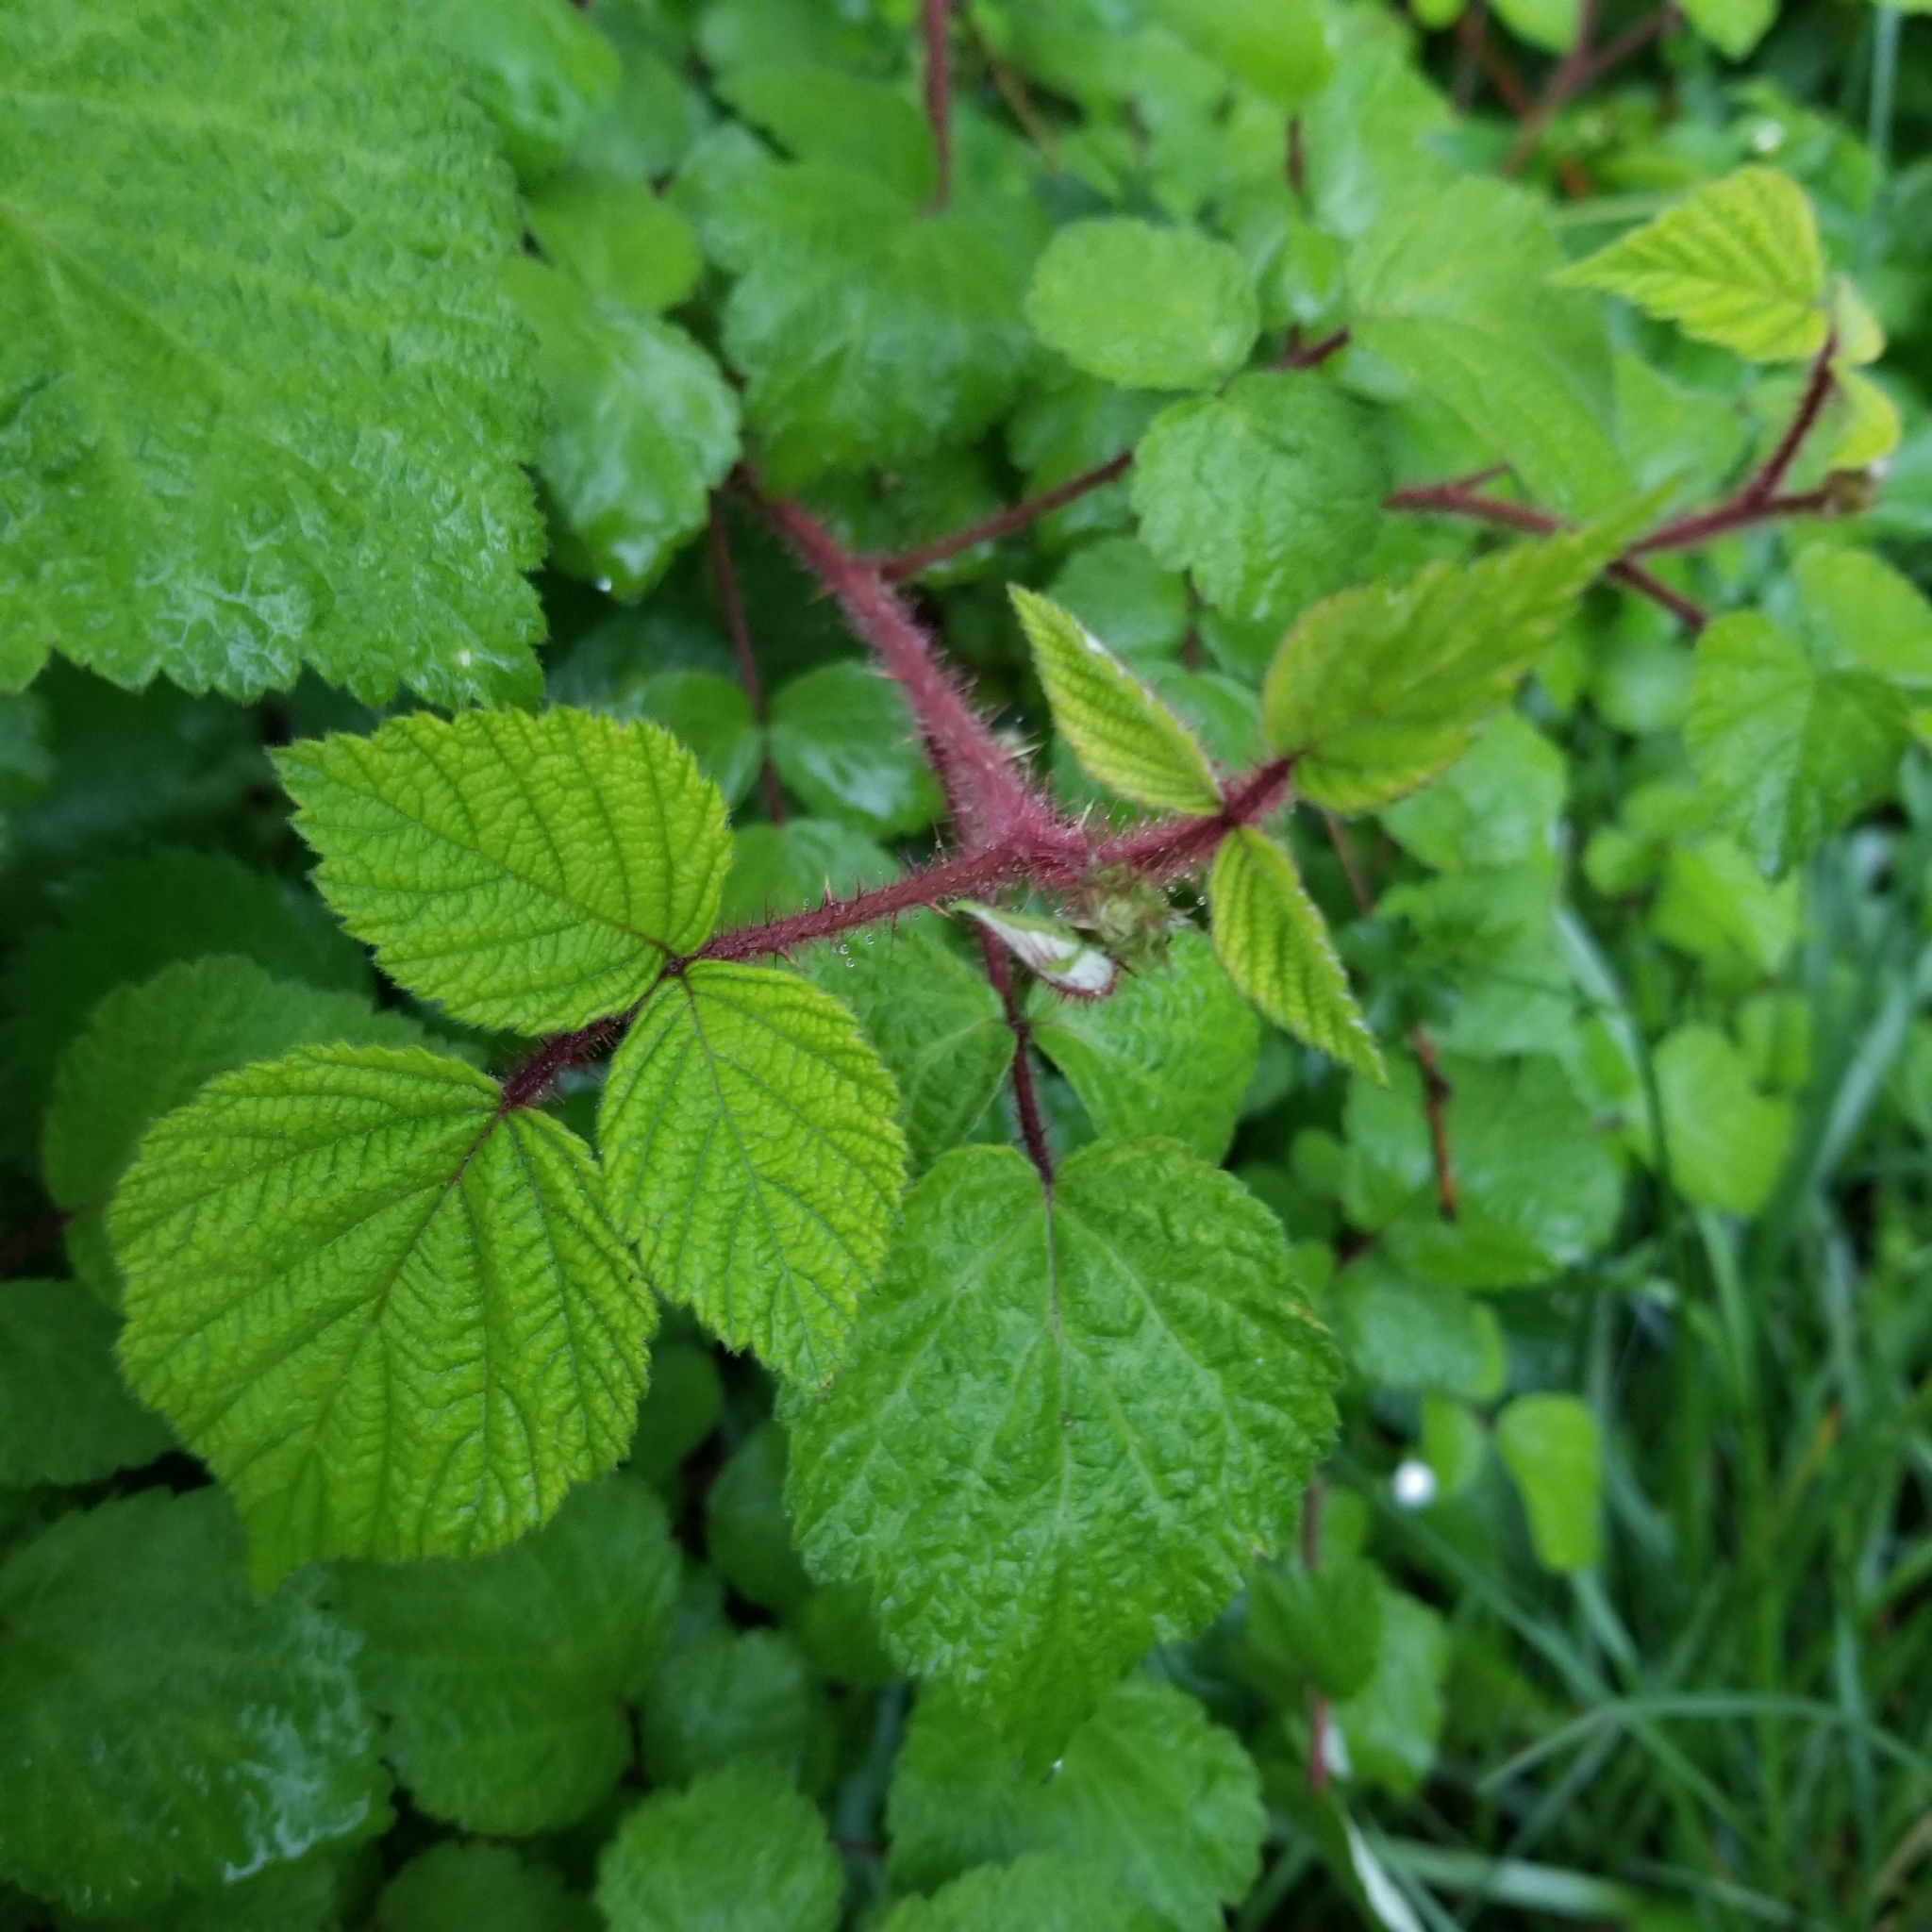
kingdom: Plantae
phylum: Tracheophyta
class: Magnoliopsida
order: Rosales
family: Rosaceae
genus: Rubus
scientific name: Rubus phoenicolasius
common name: Japanese wineberry
